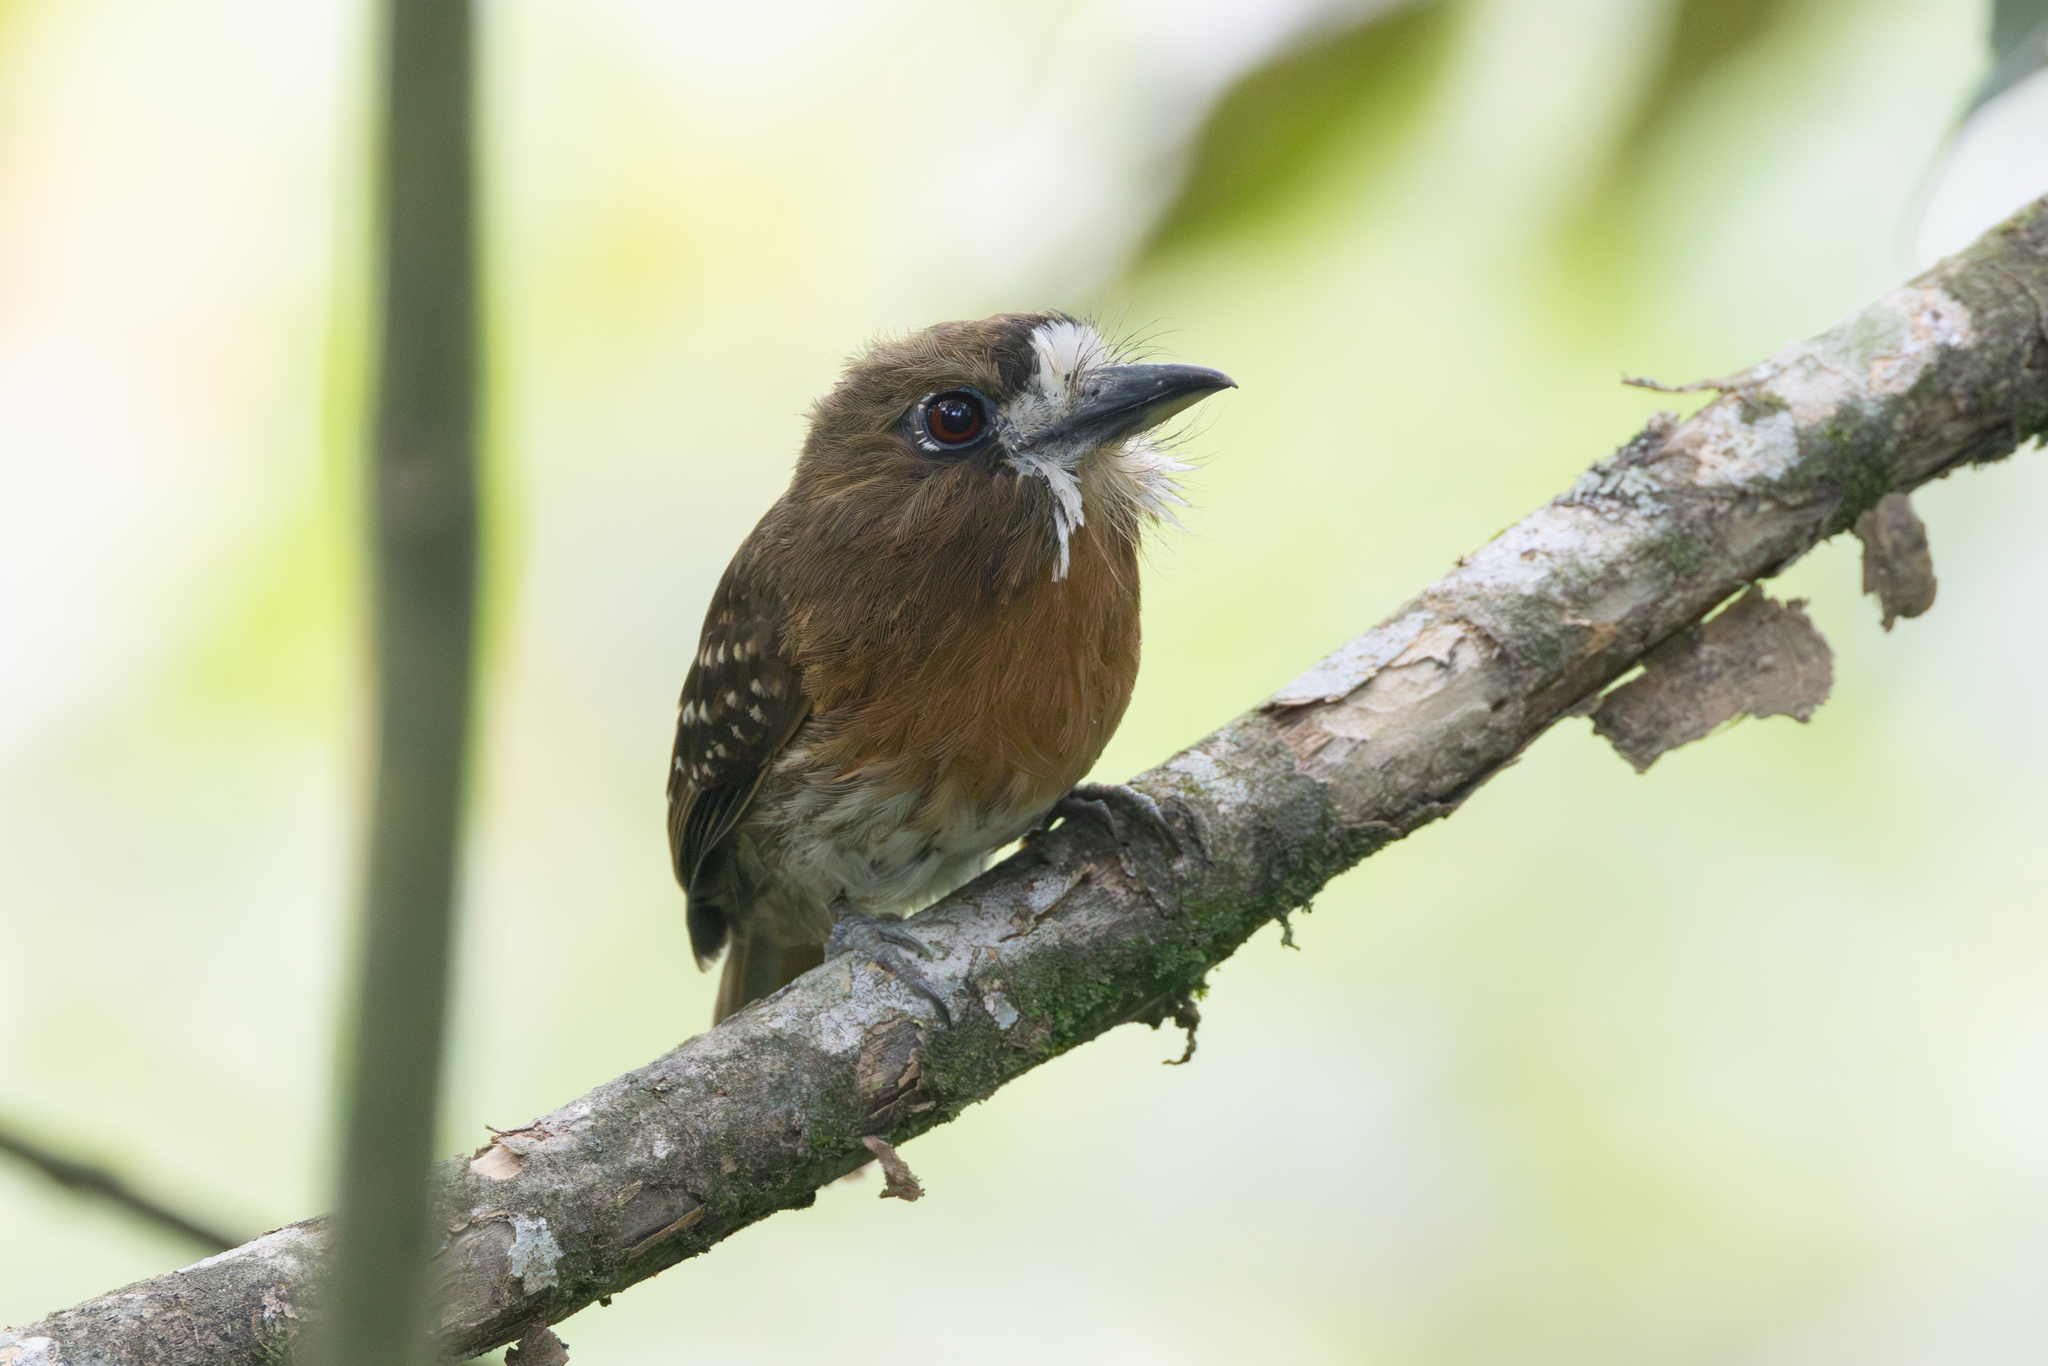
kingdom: Animalia
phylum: Chordata
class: Aves
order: Piciformes
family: Bucconidae
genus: Malacoptila
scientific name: Malacoptila mystacalis
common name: Moustached puffbird
